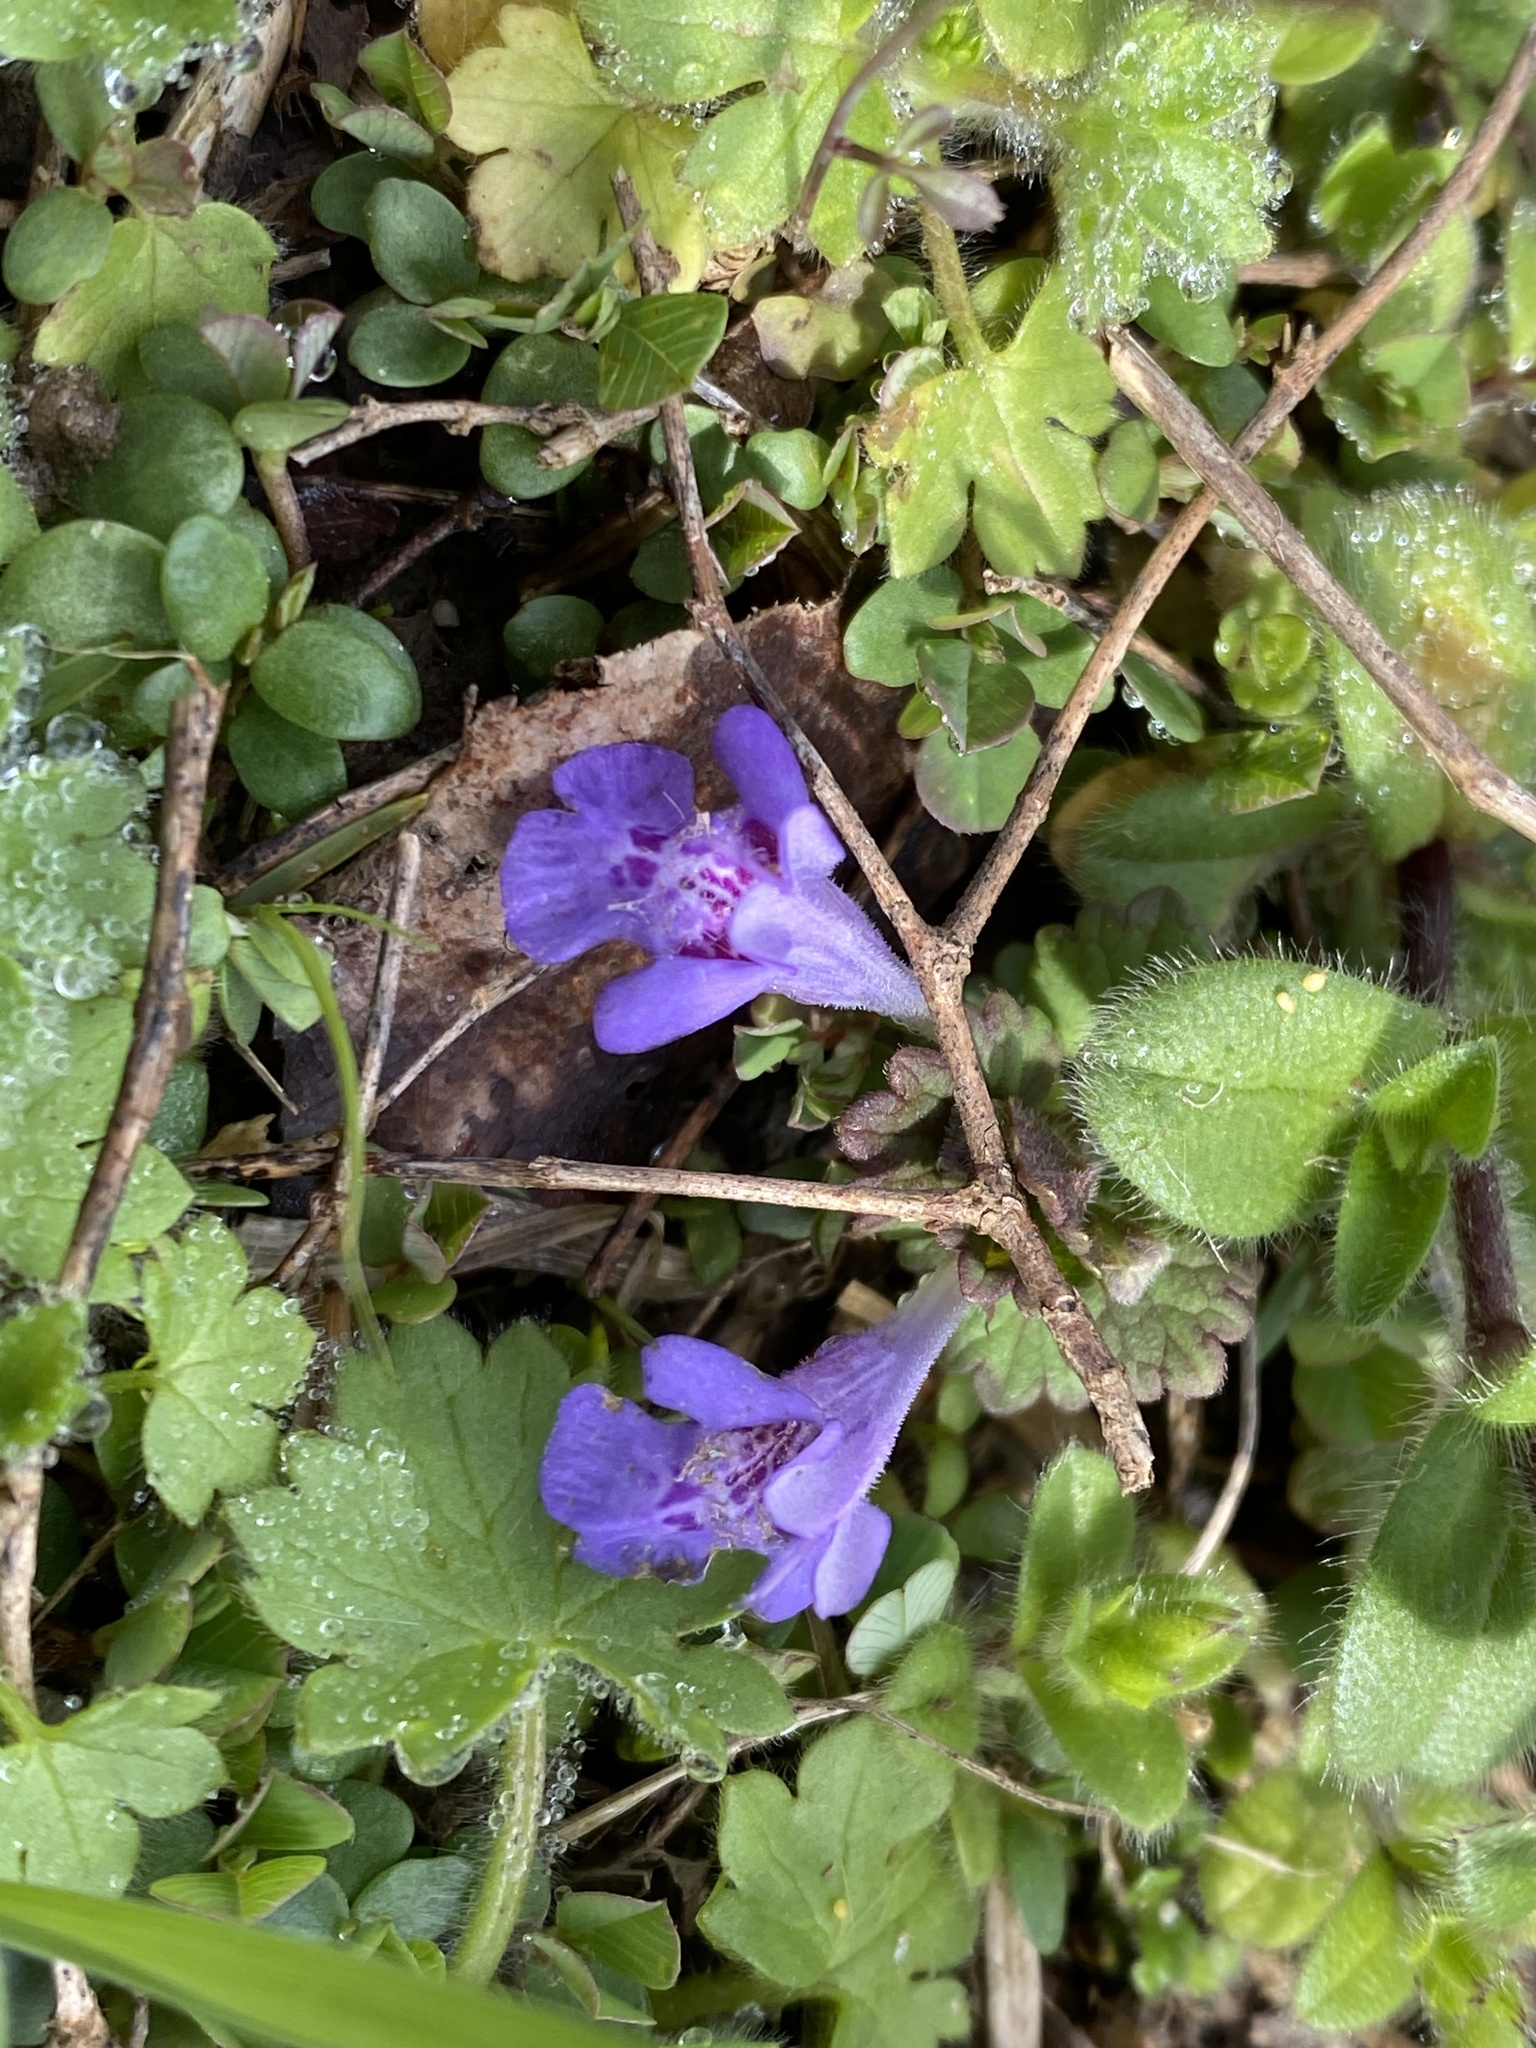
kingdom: Plantae
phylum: Tracheophyta
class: Magnoliopsida
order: Lamiales
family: Lamiaceae
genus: Glechoma
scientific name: Glechoma hederacea
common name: Ground ivy
